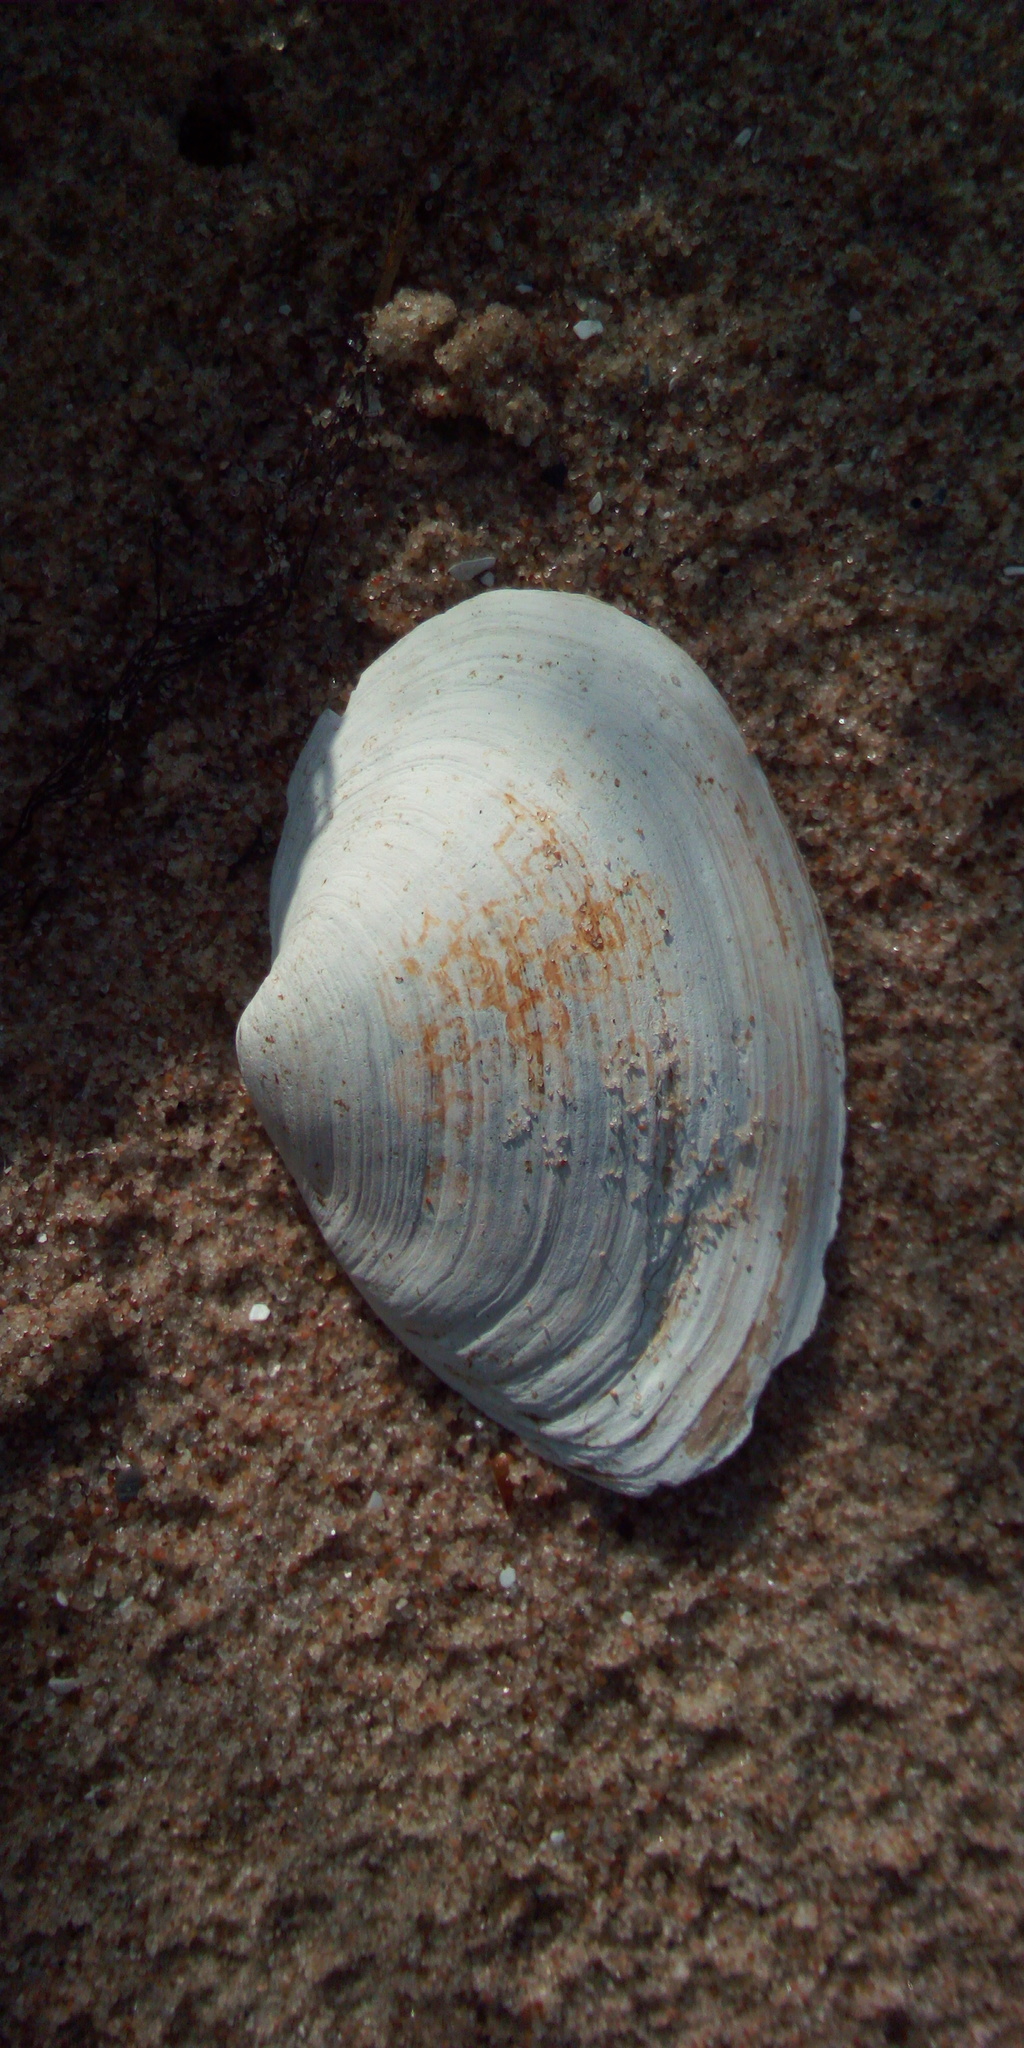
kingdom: Animalia
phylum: Mollusca
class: Bivalvia
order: Myida
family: Myidae
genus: Mya
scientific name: Mya arenaria
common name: Soft-shelled clam
